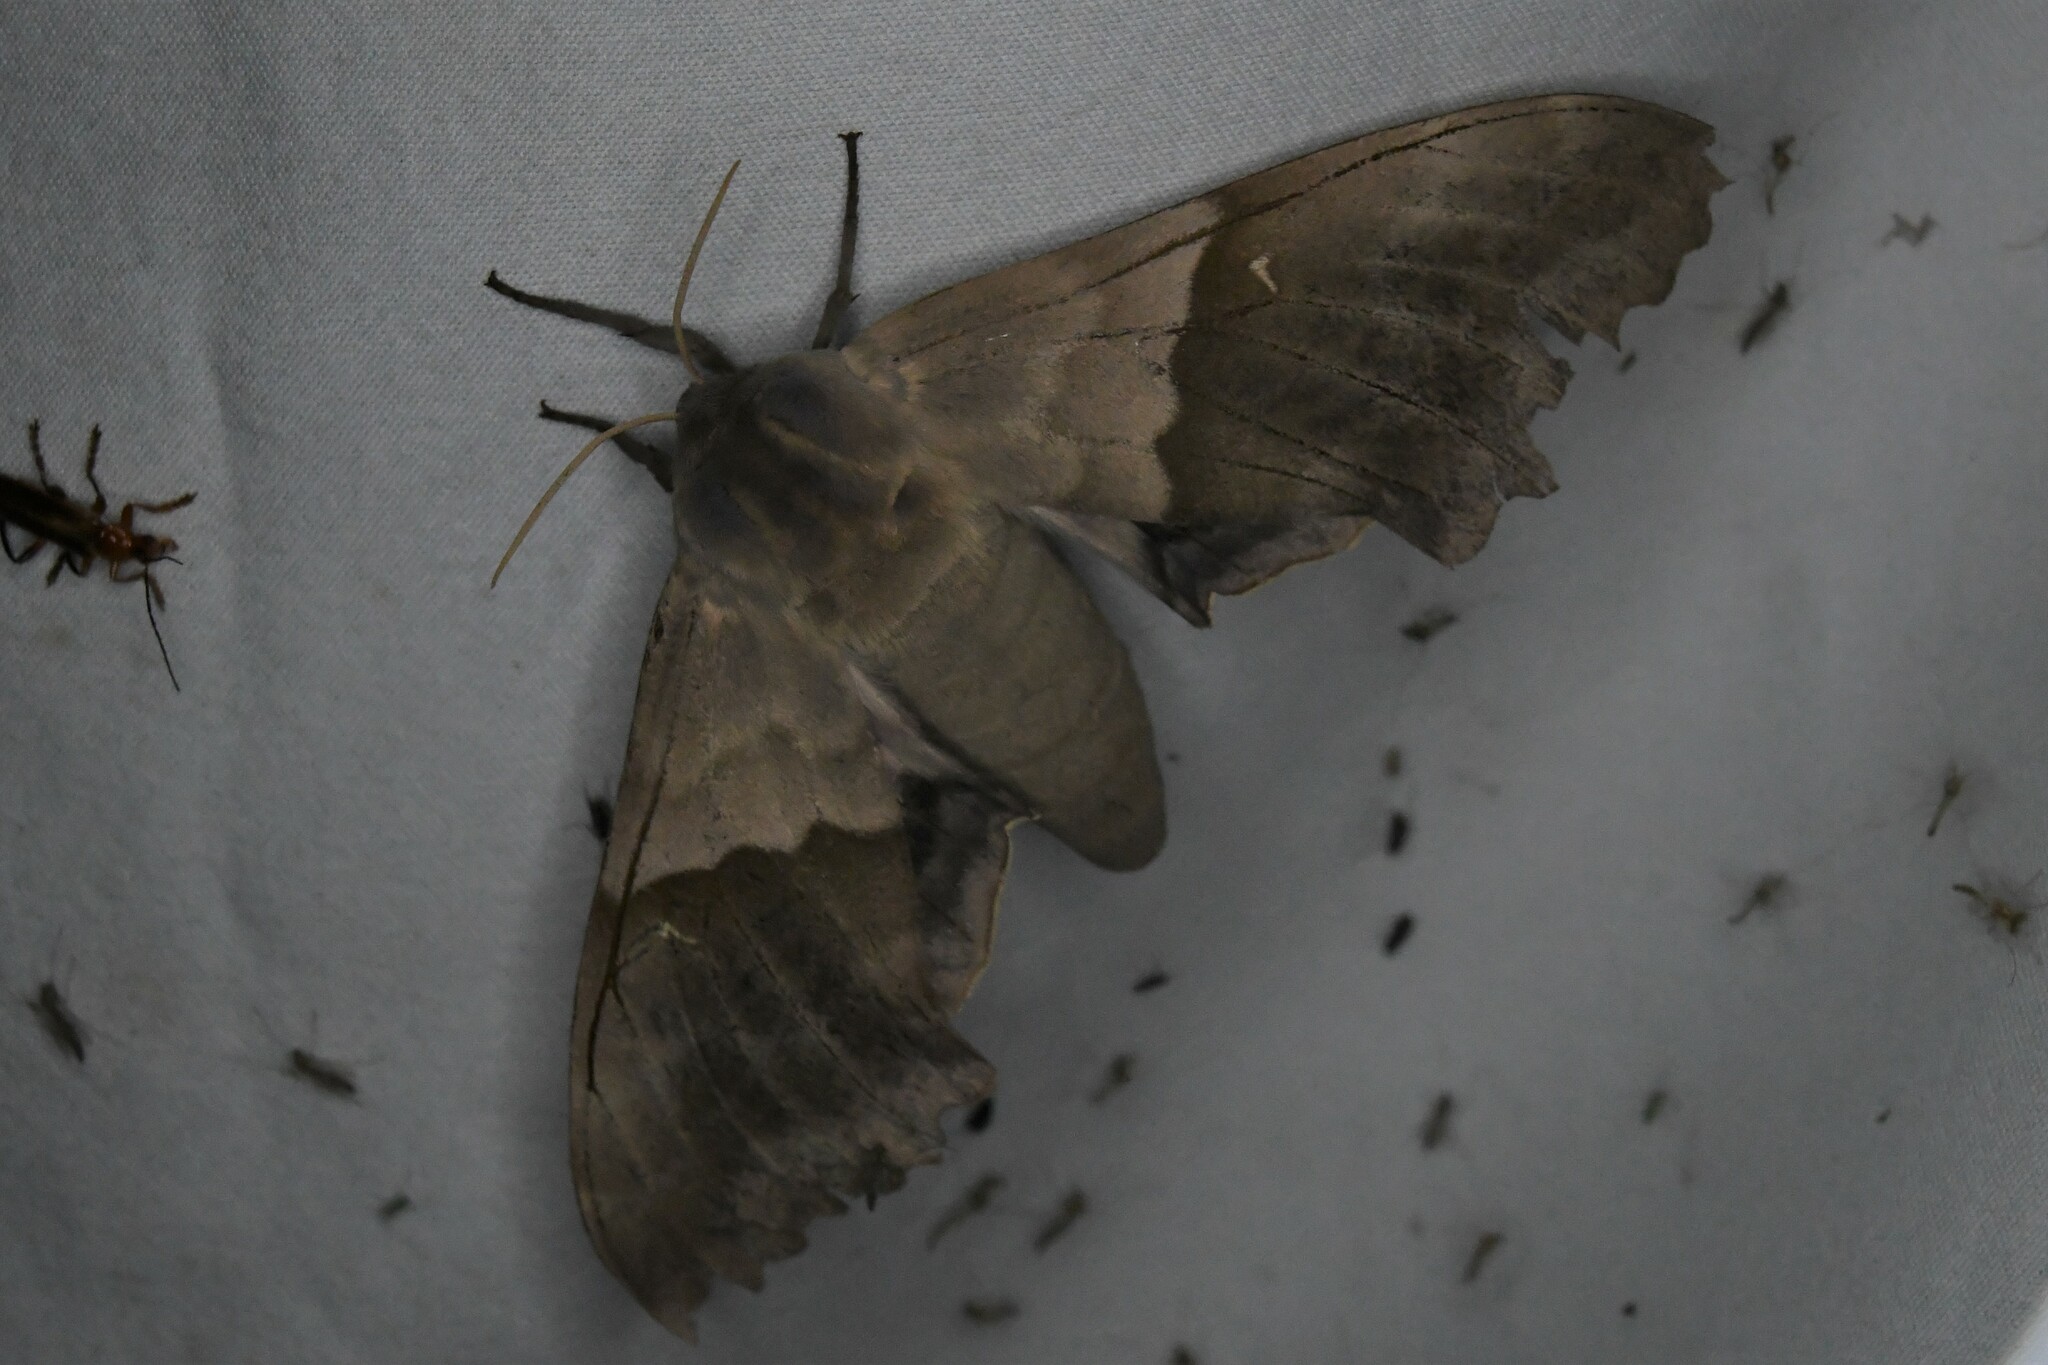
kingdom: Animalia
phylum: Arthropoda
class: Insecta
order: Lepidoptera
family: Sphingidae
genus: Pachysphinx
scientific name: Pachysphinx modesta
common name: Big poplar sphinx
